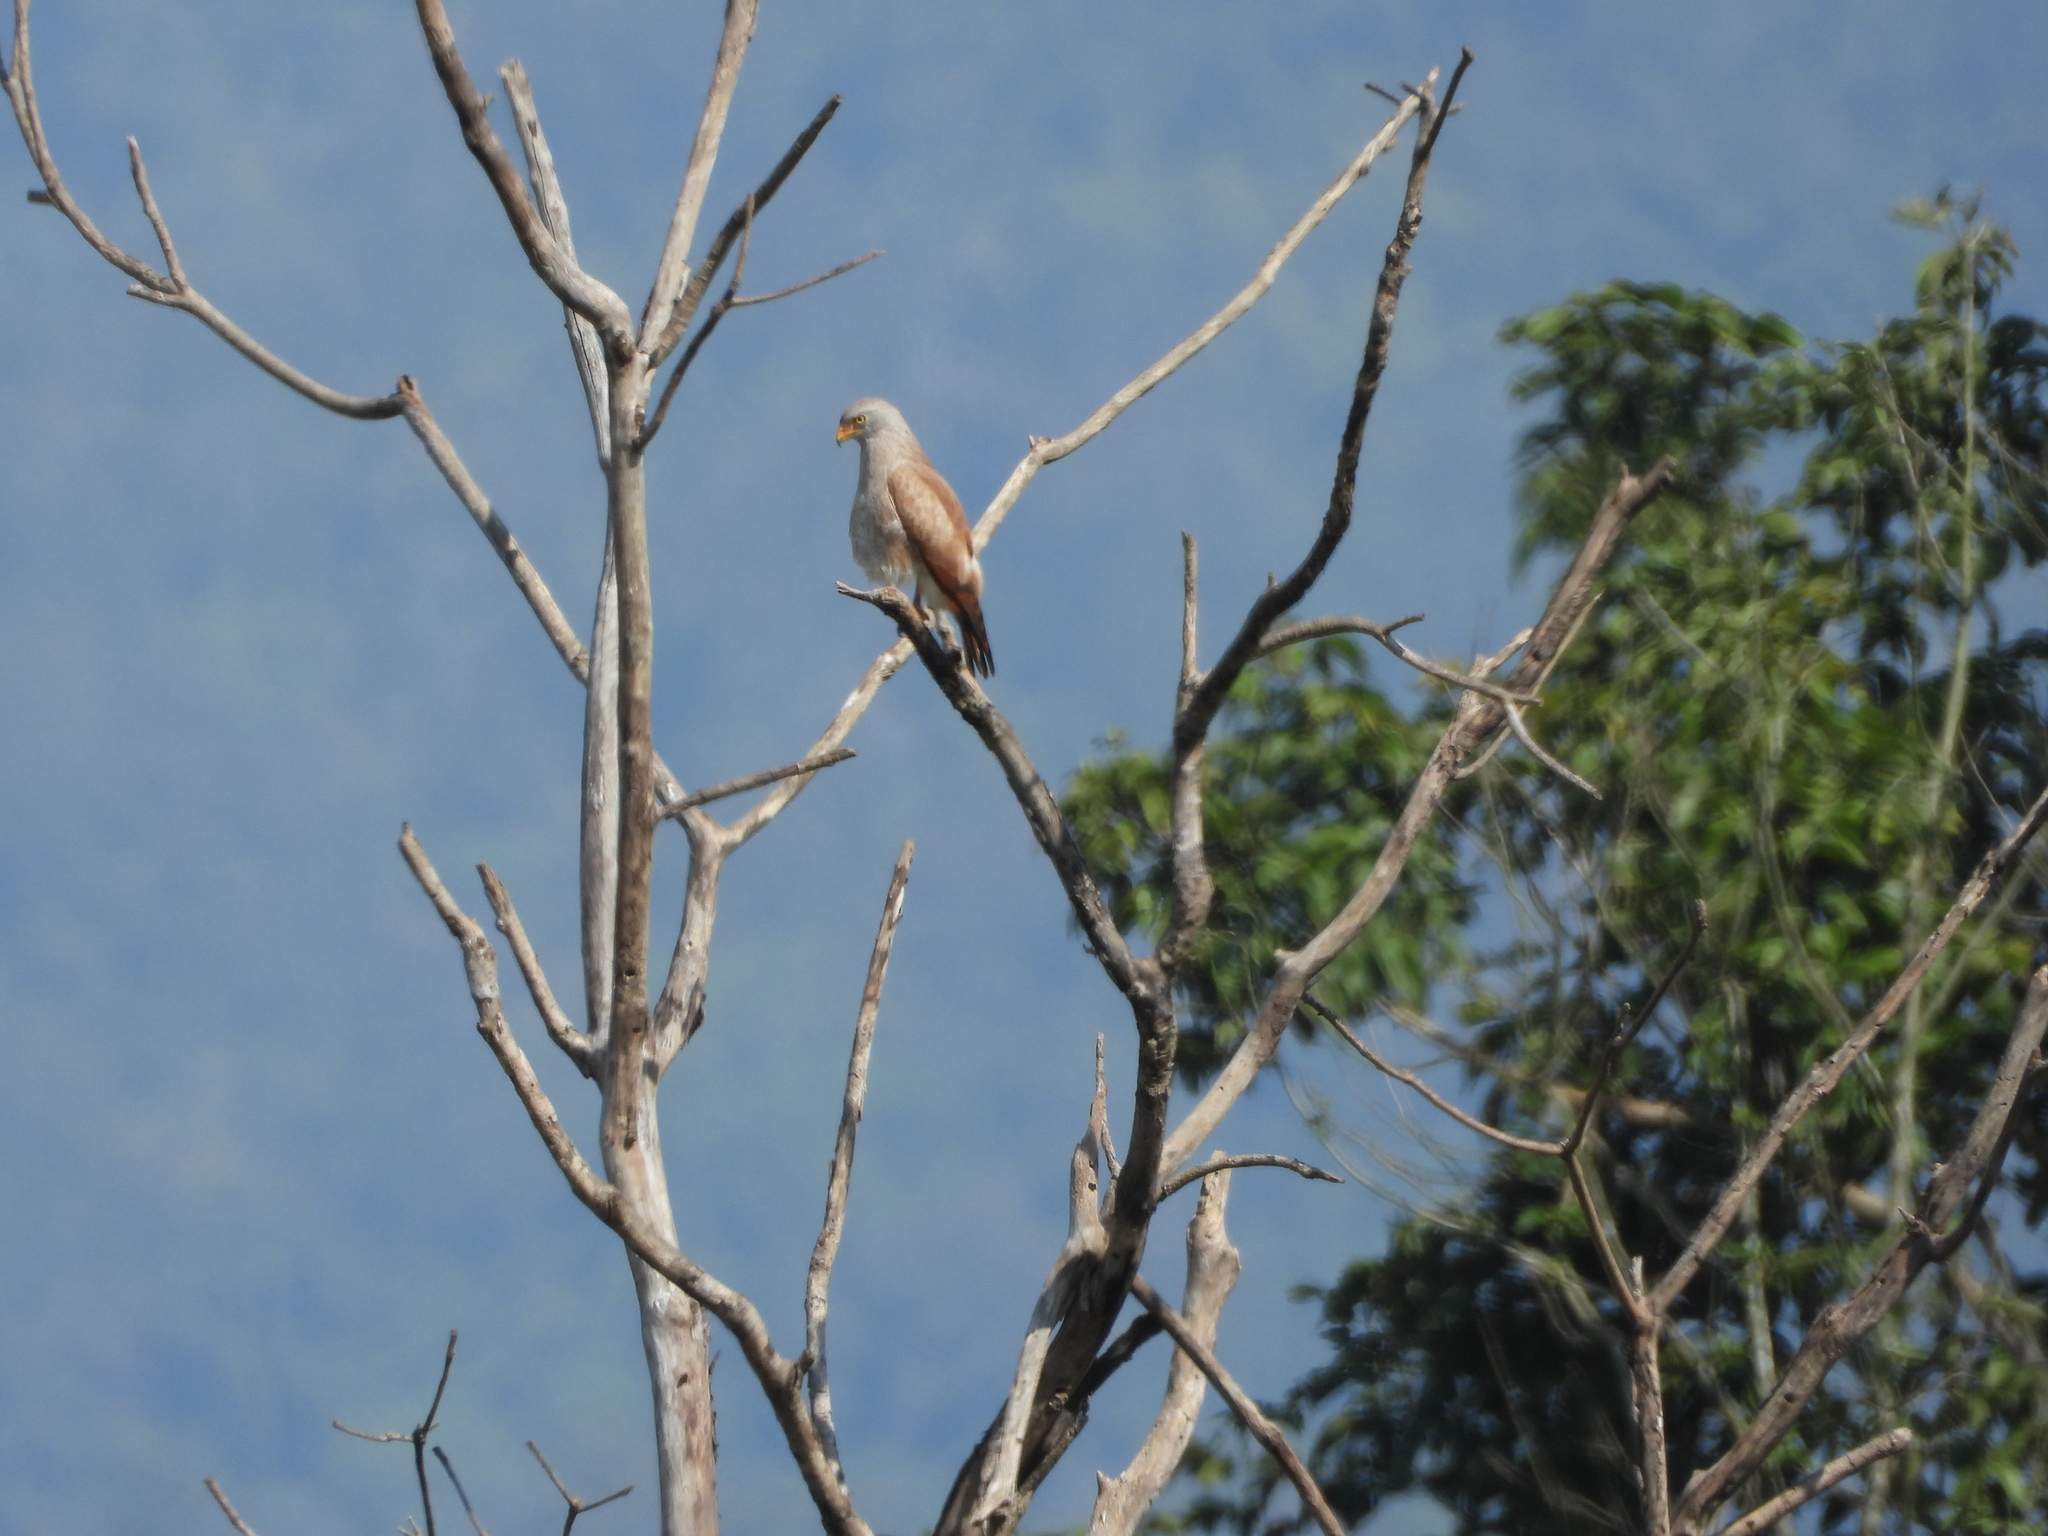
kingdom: Animalia
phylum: Chordata
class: Aves
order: Accipitriformes
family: Accipitridae
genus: Butastur
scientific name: Butastur liventer
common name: Rufous-winged buzzard
